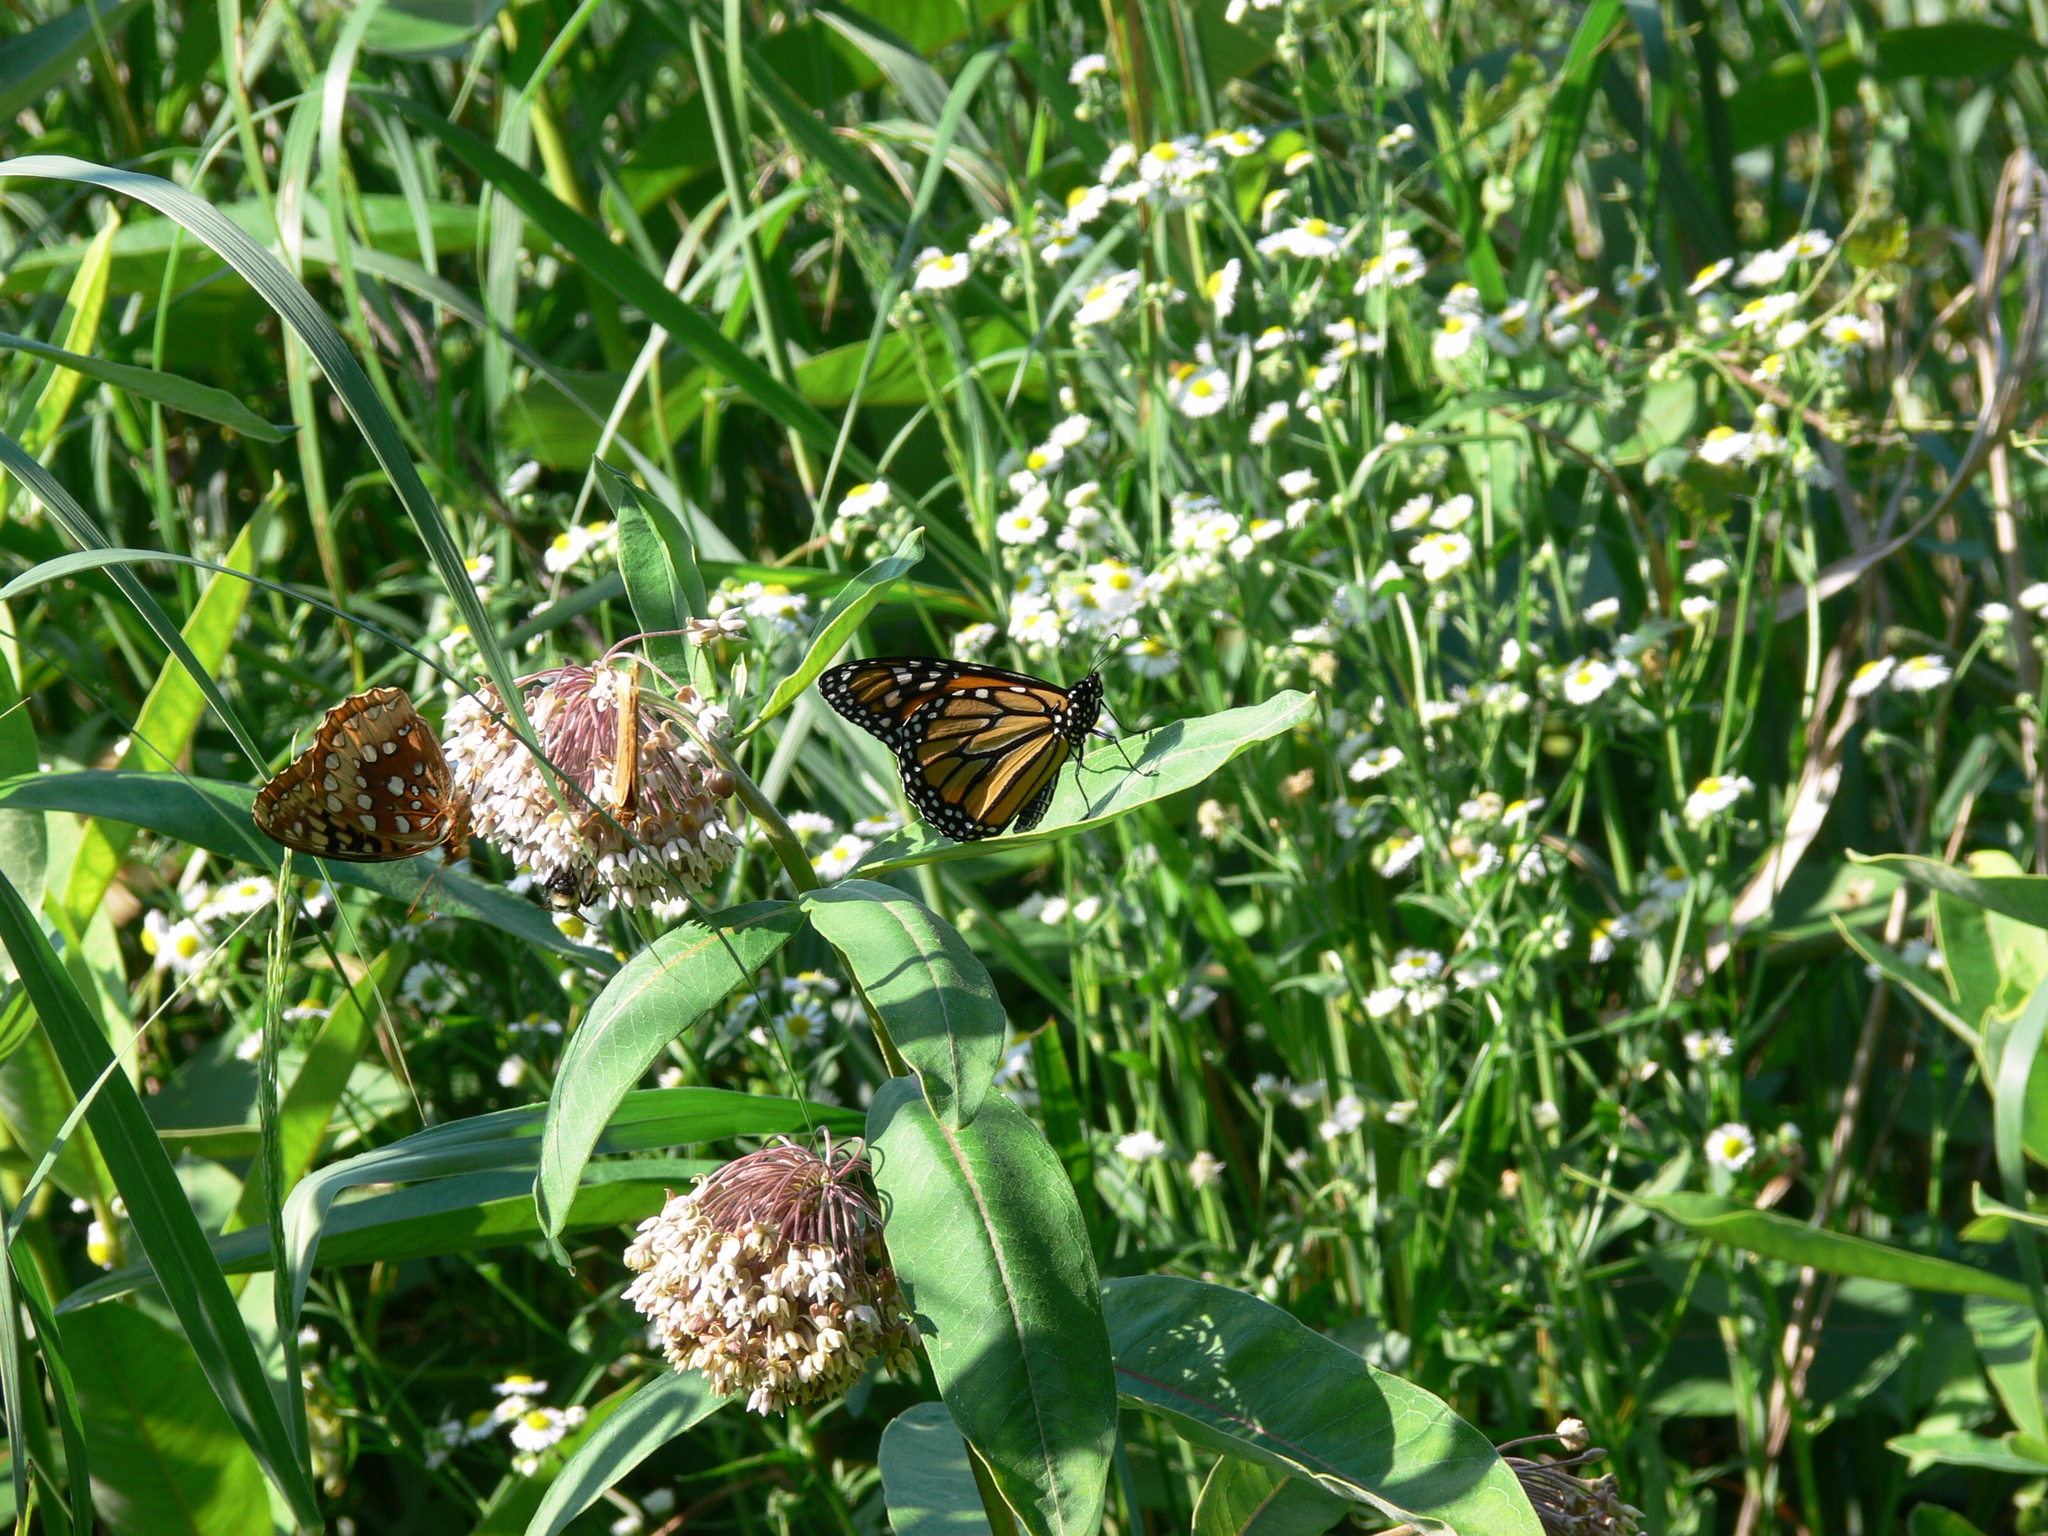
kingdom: Animalia
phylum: Arthropoda
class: Insecta
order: Lepidoptera
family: Nymphalidae
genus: Danaus
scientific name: Danaus plexippus
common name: Monarch
